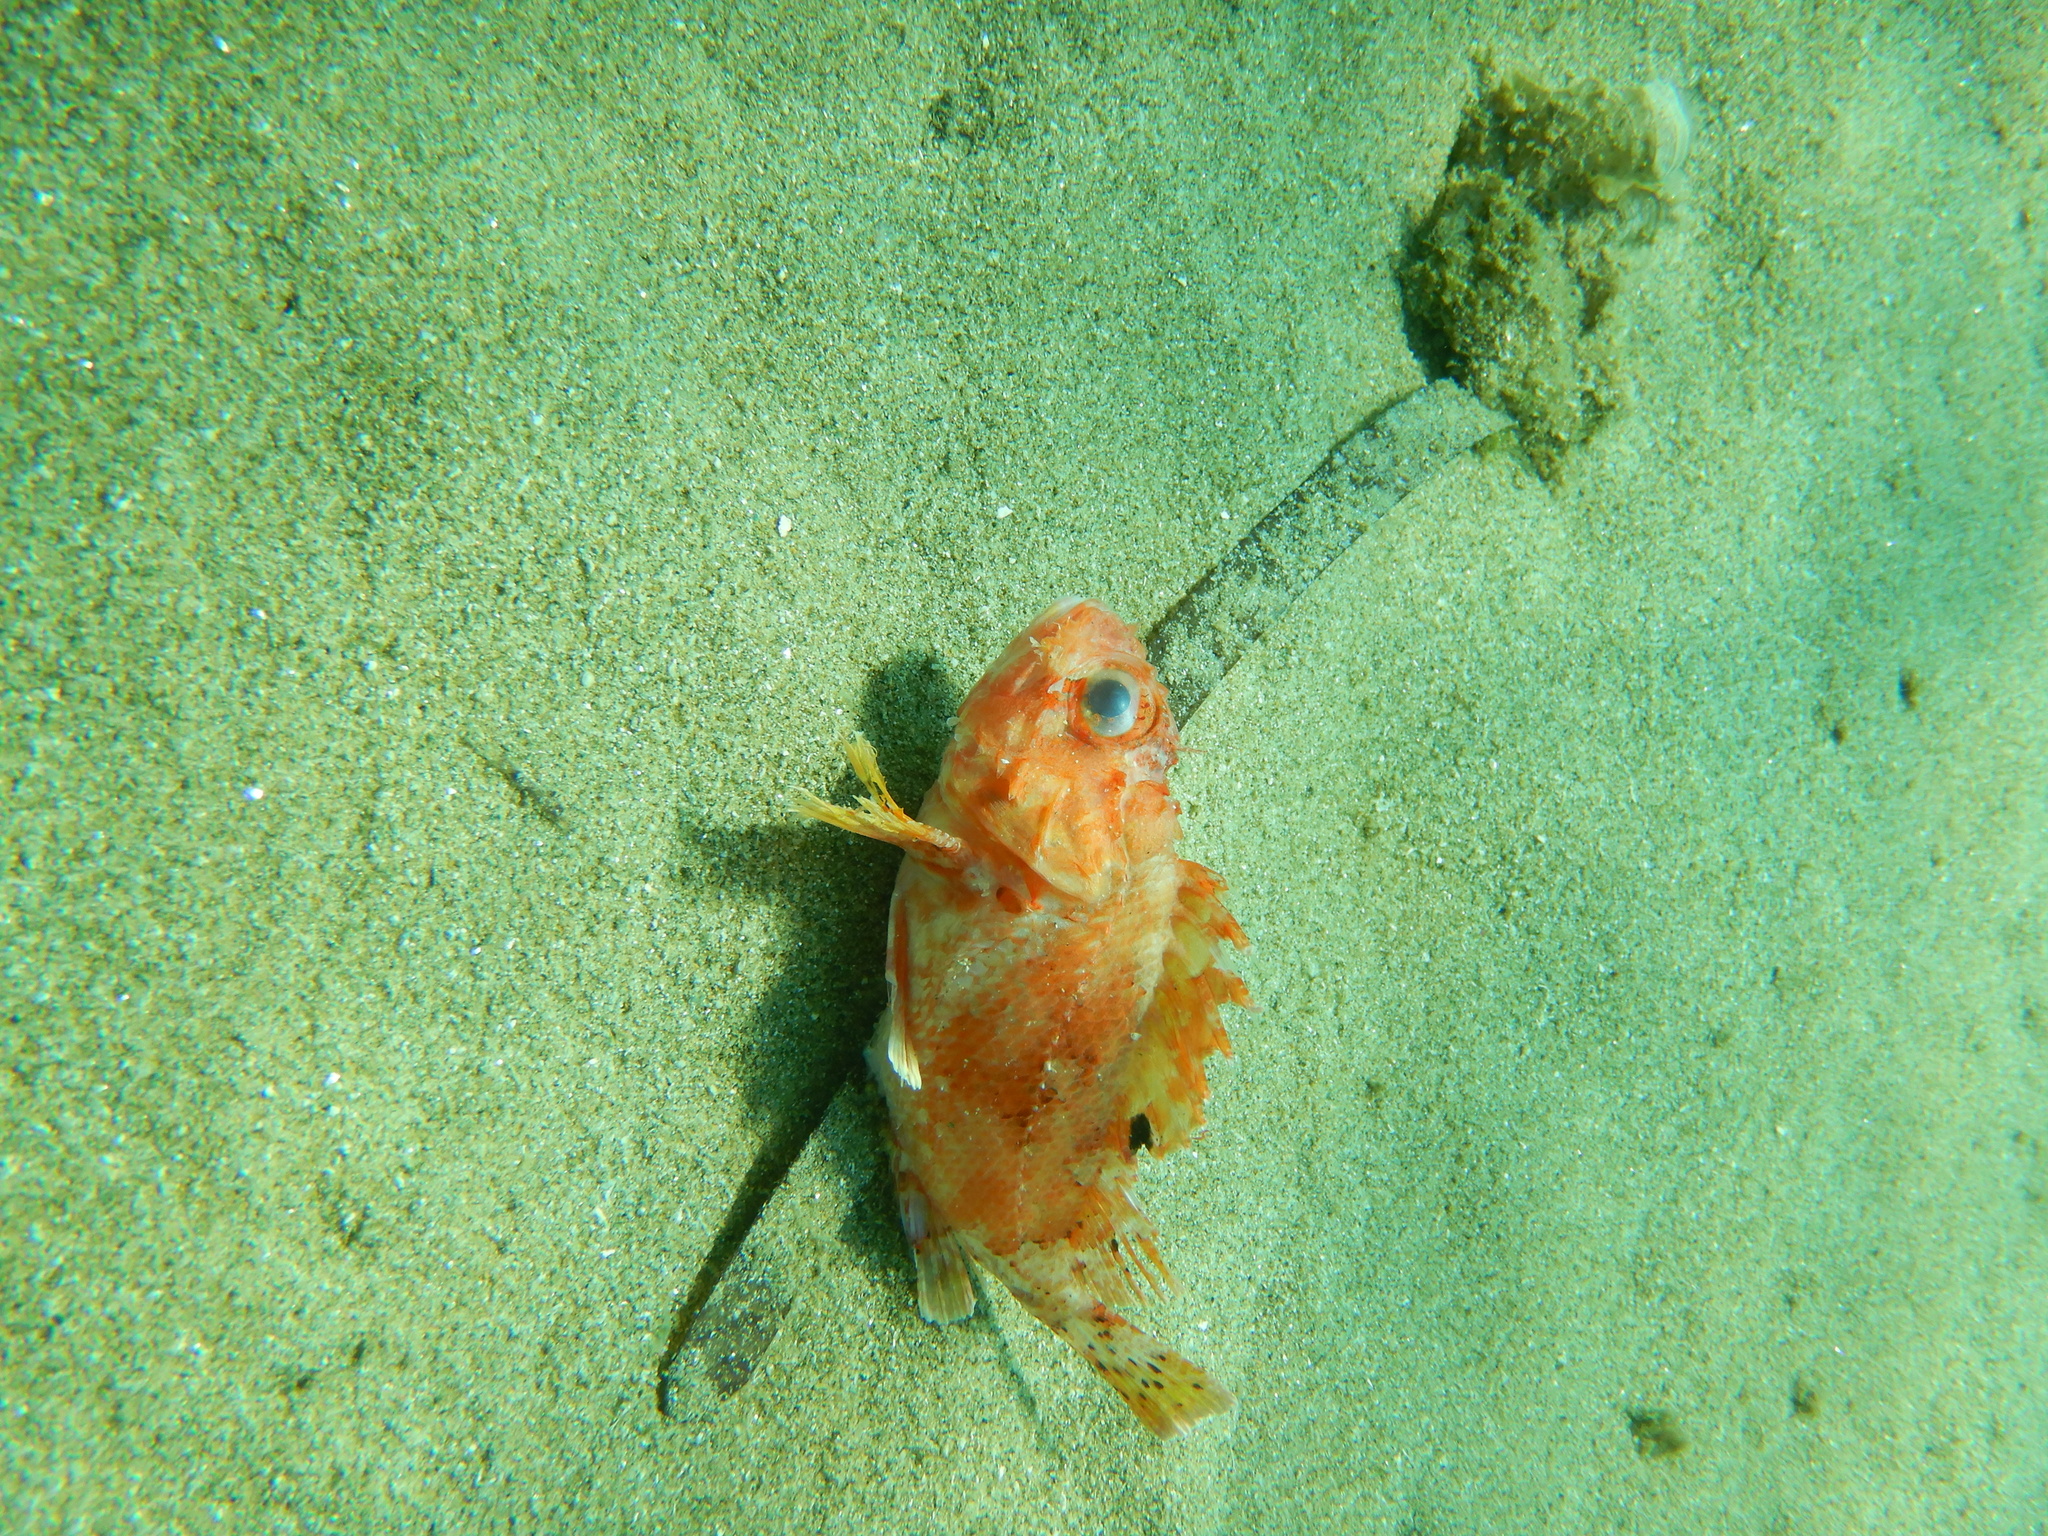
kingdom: Animalia
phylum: Chordata
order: Scorpaeniformes
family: Scorpaenidae
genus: Scorpaena
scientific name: Scorpaena notata
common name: Small red scorpionfish
